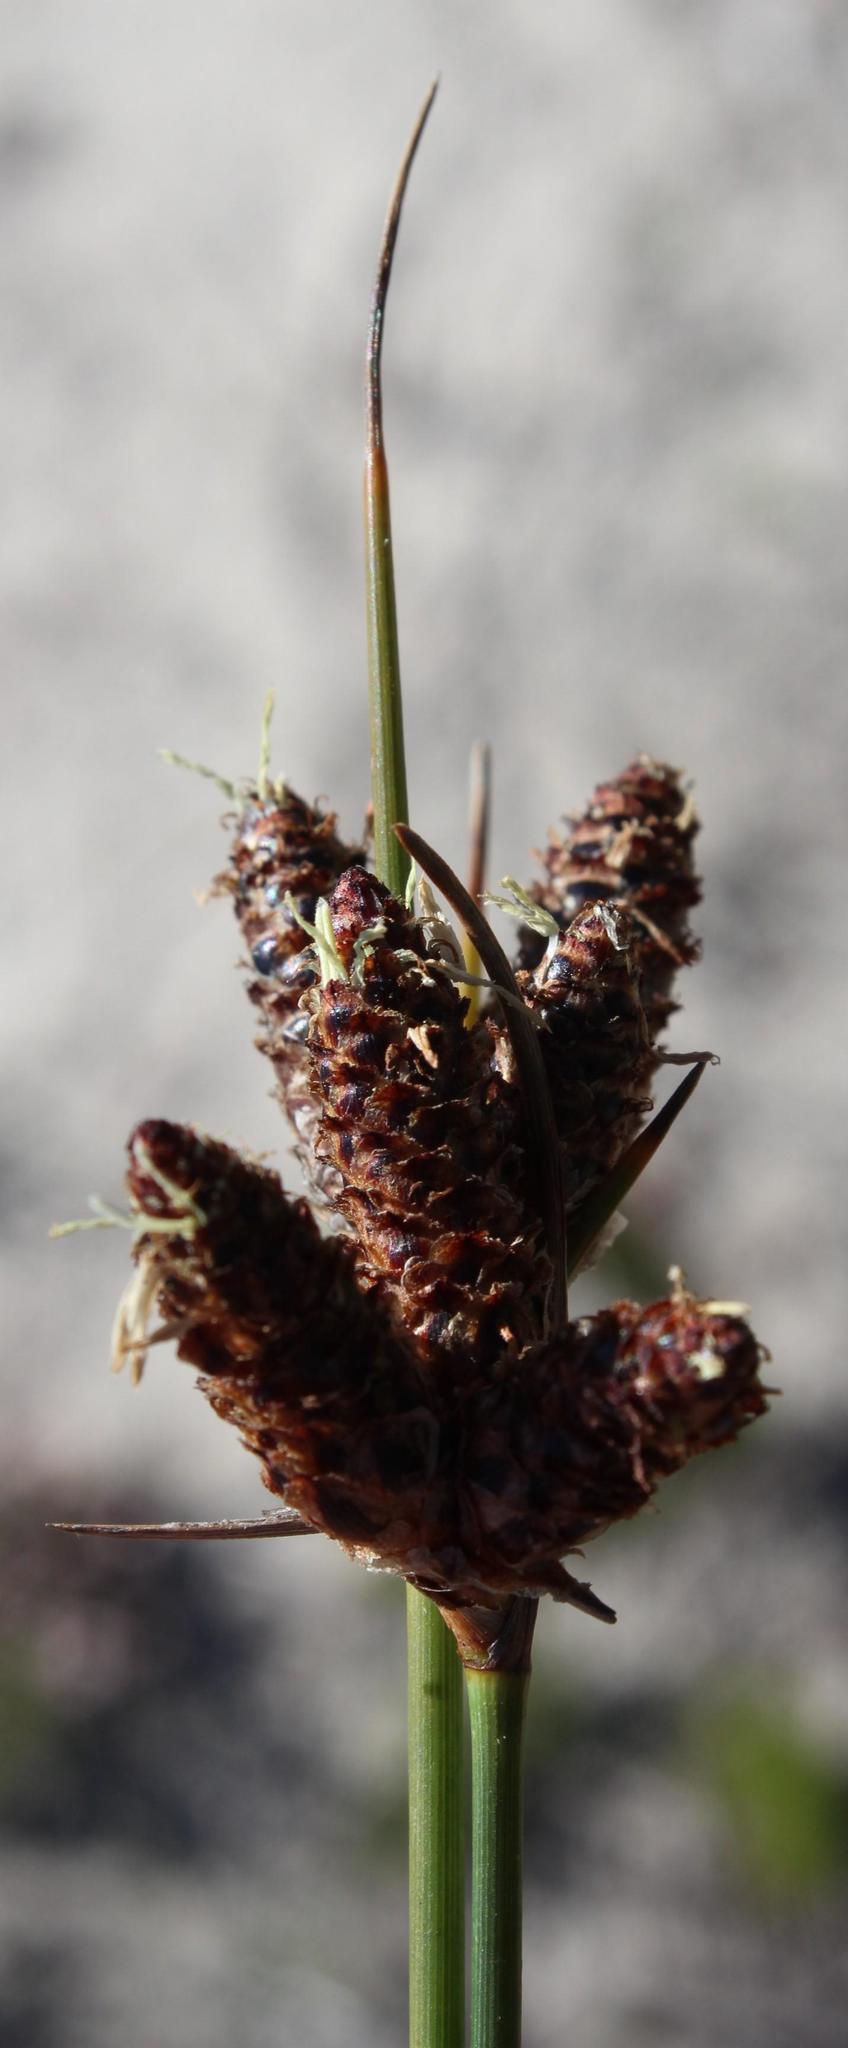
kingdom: Plantae
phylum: Tracheophyta
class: Liliopsida
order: Poales
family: Cyperaceae
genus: Hellmuthia
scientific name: Hellmuthia membranacea
